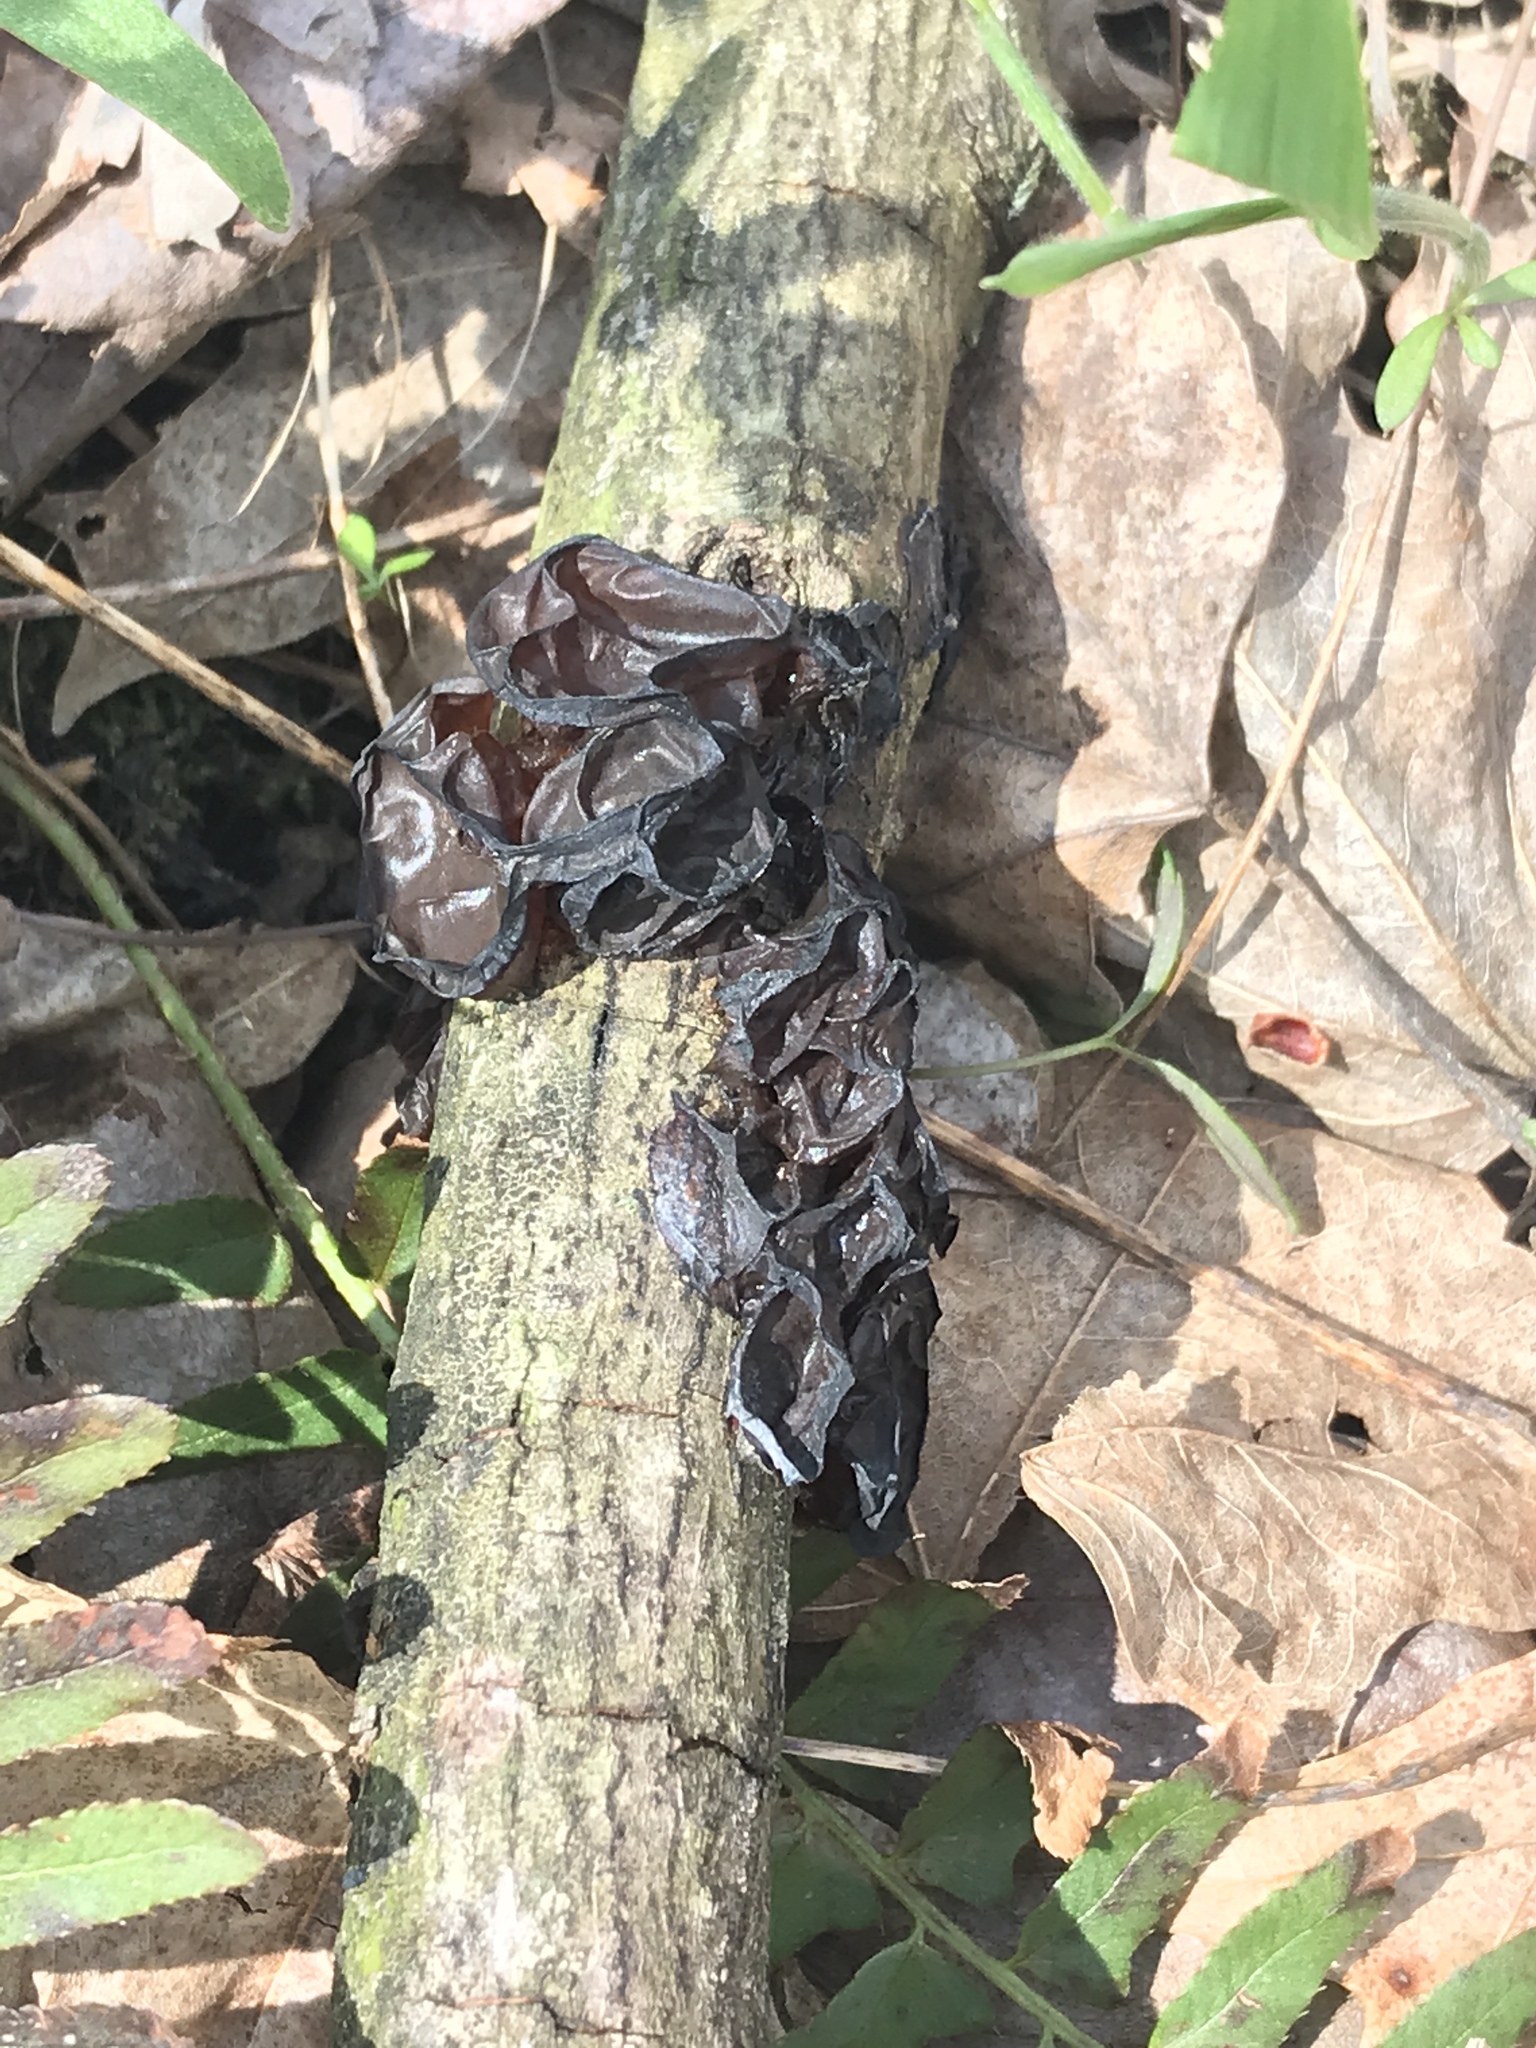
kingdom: Fungi
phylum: Basidiomycota
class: Agaricomycetes
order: Auriculariales
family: Auriculariaceae
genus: Exidia
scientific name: Exidia
